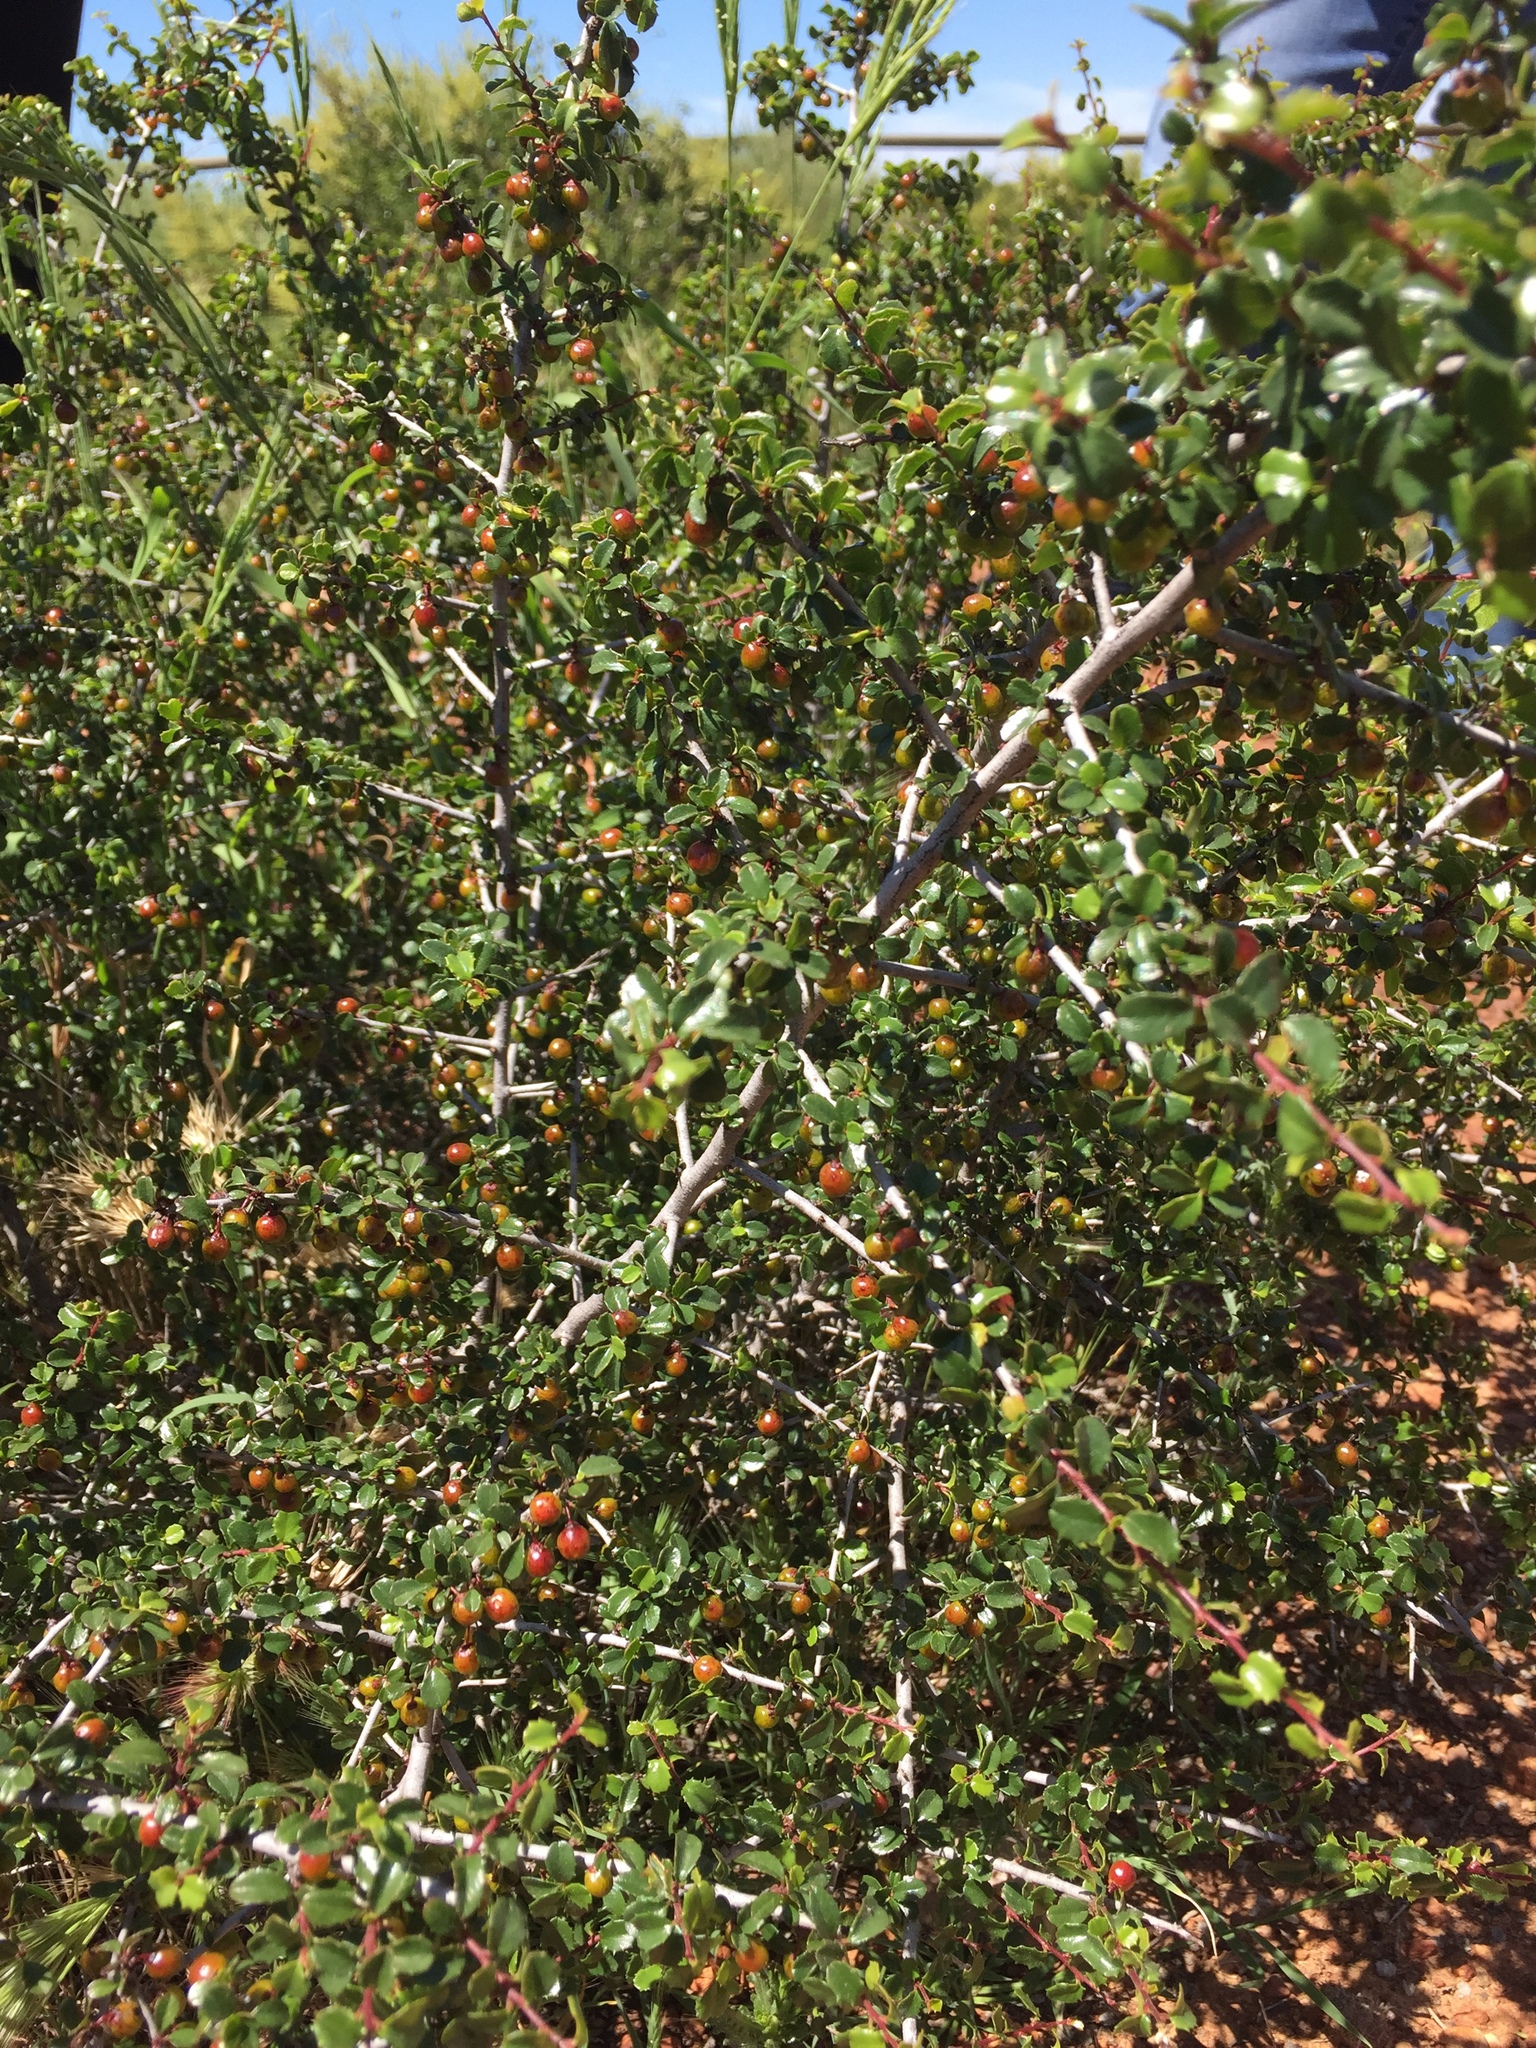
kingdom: Plantae
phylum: Tracheophyta
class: Magnoliopsida
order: Rosales
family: Rhamnaceae
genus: Endotropis
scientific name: Endotropis crocea
